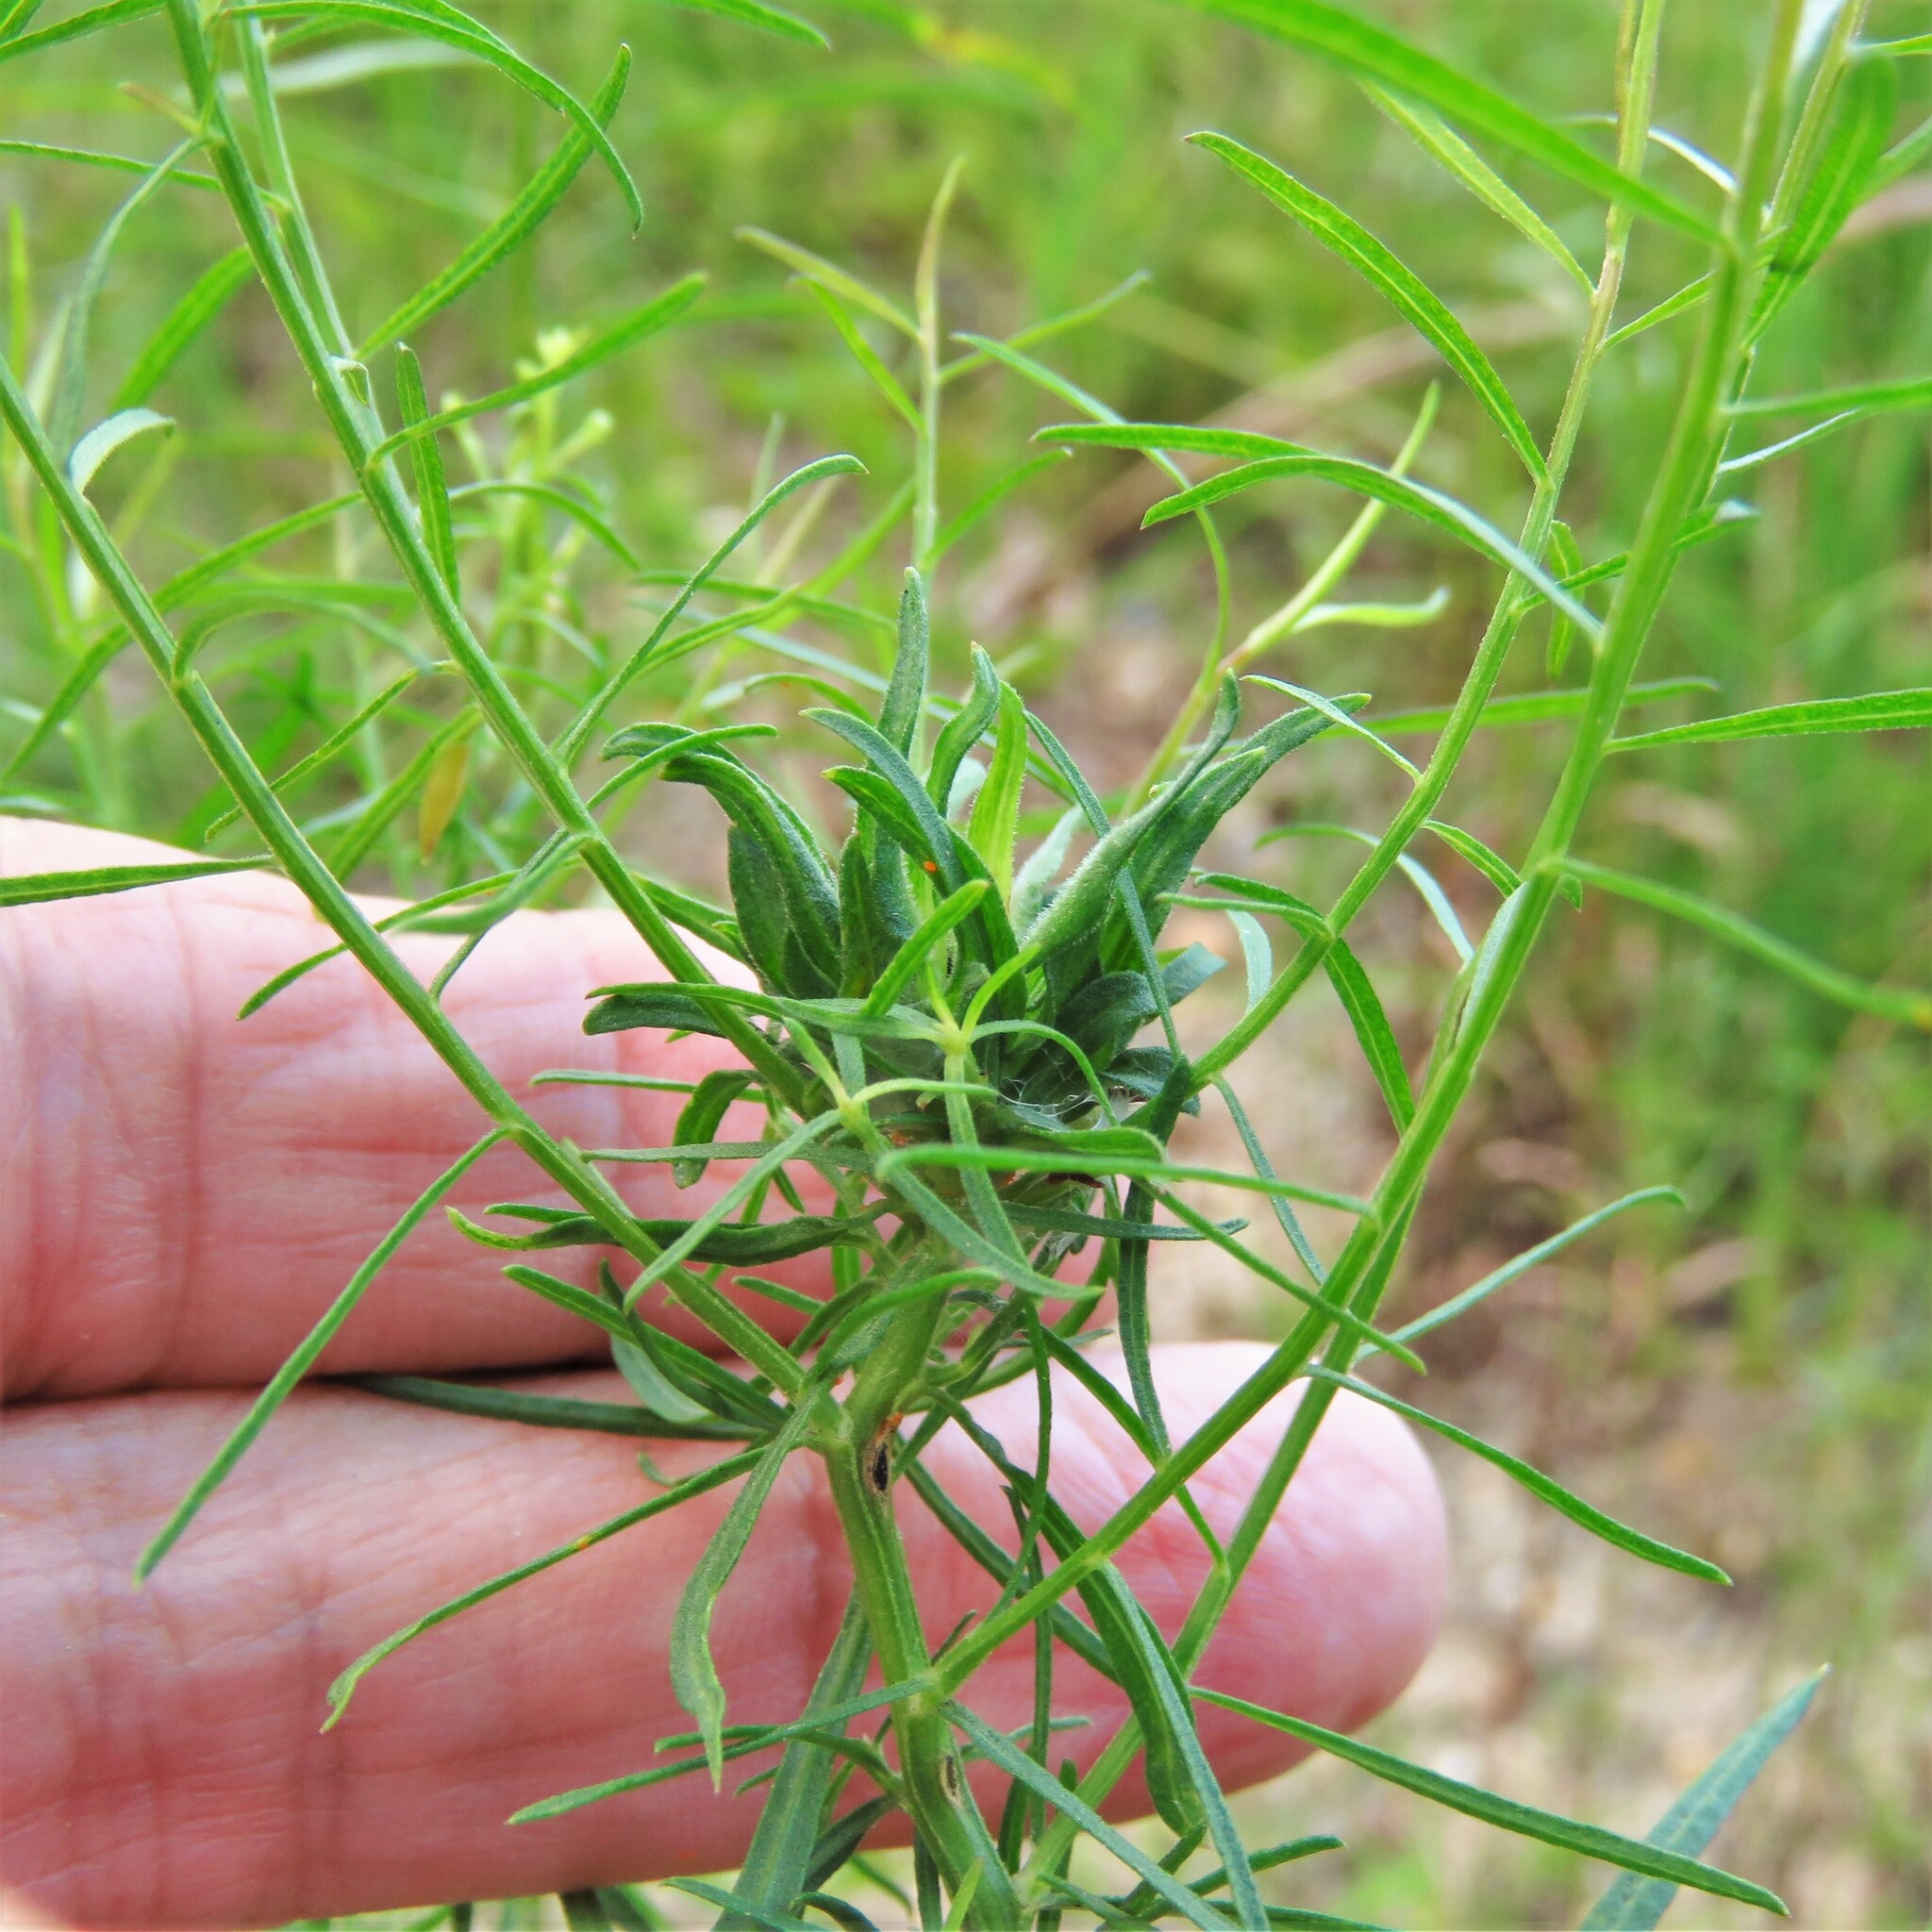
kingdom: Animalia
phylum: Arthropoda
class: Insecta
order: Diptera
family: Cecidomyiidae
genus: Asphondylia
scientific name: Asphondylia pseudorosa
